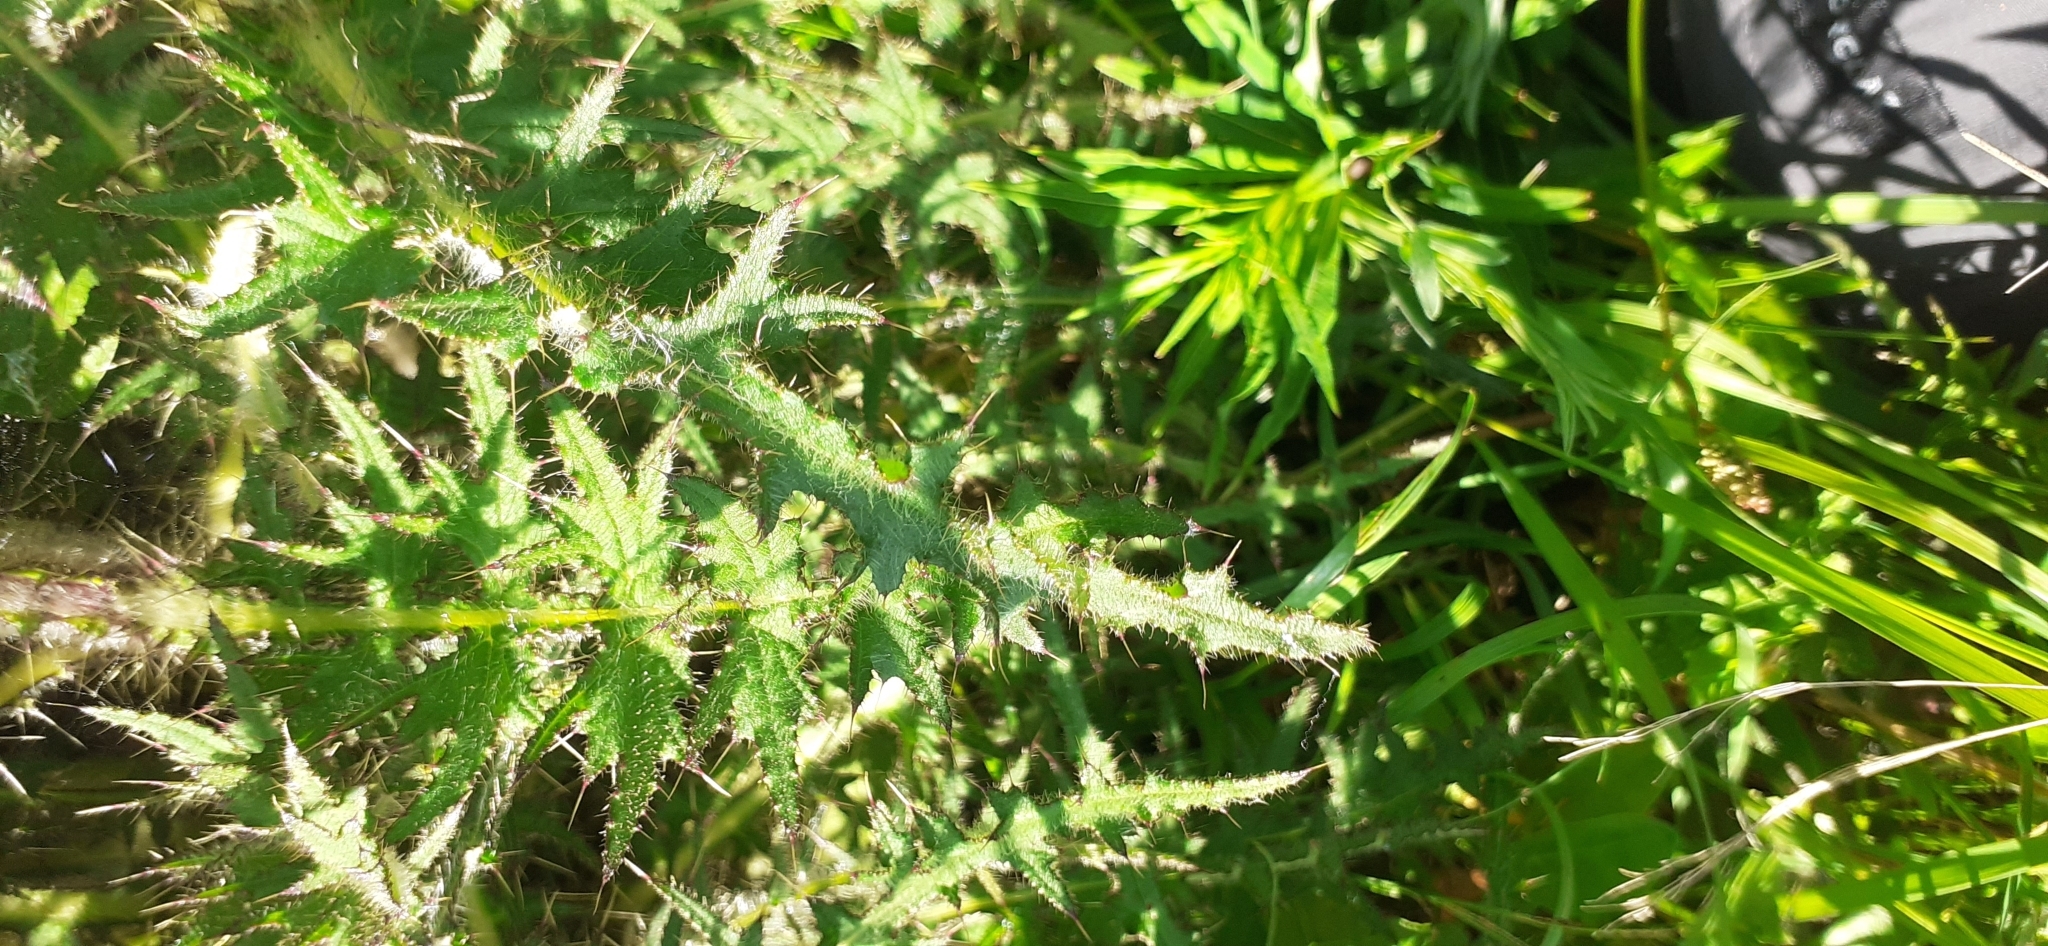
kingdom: Plantae
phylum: Tracheophyta
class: Magnoliopsida
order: Asterales
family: Asteraceae
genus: Cirsium
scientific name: Cirsium palustre
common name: Marsh thistle
